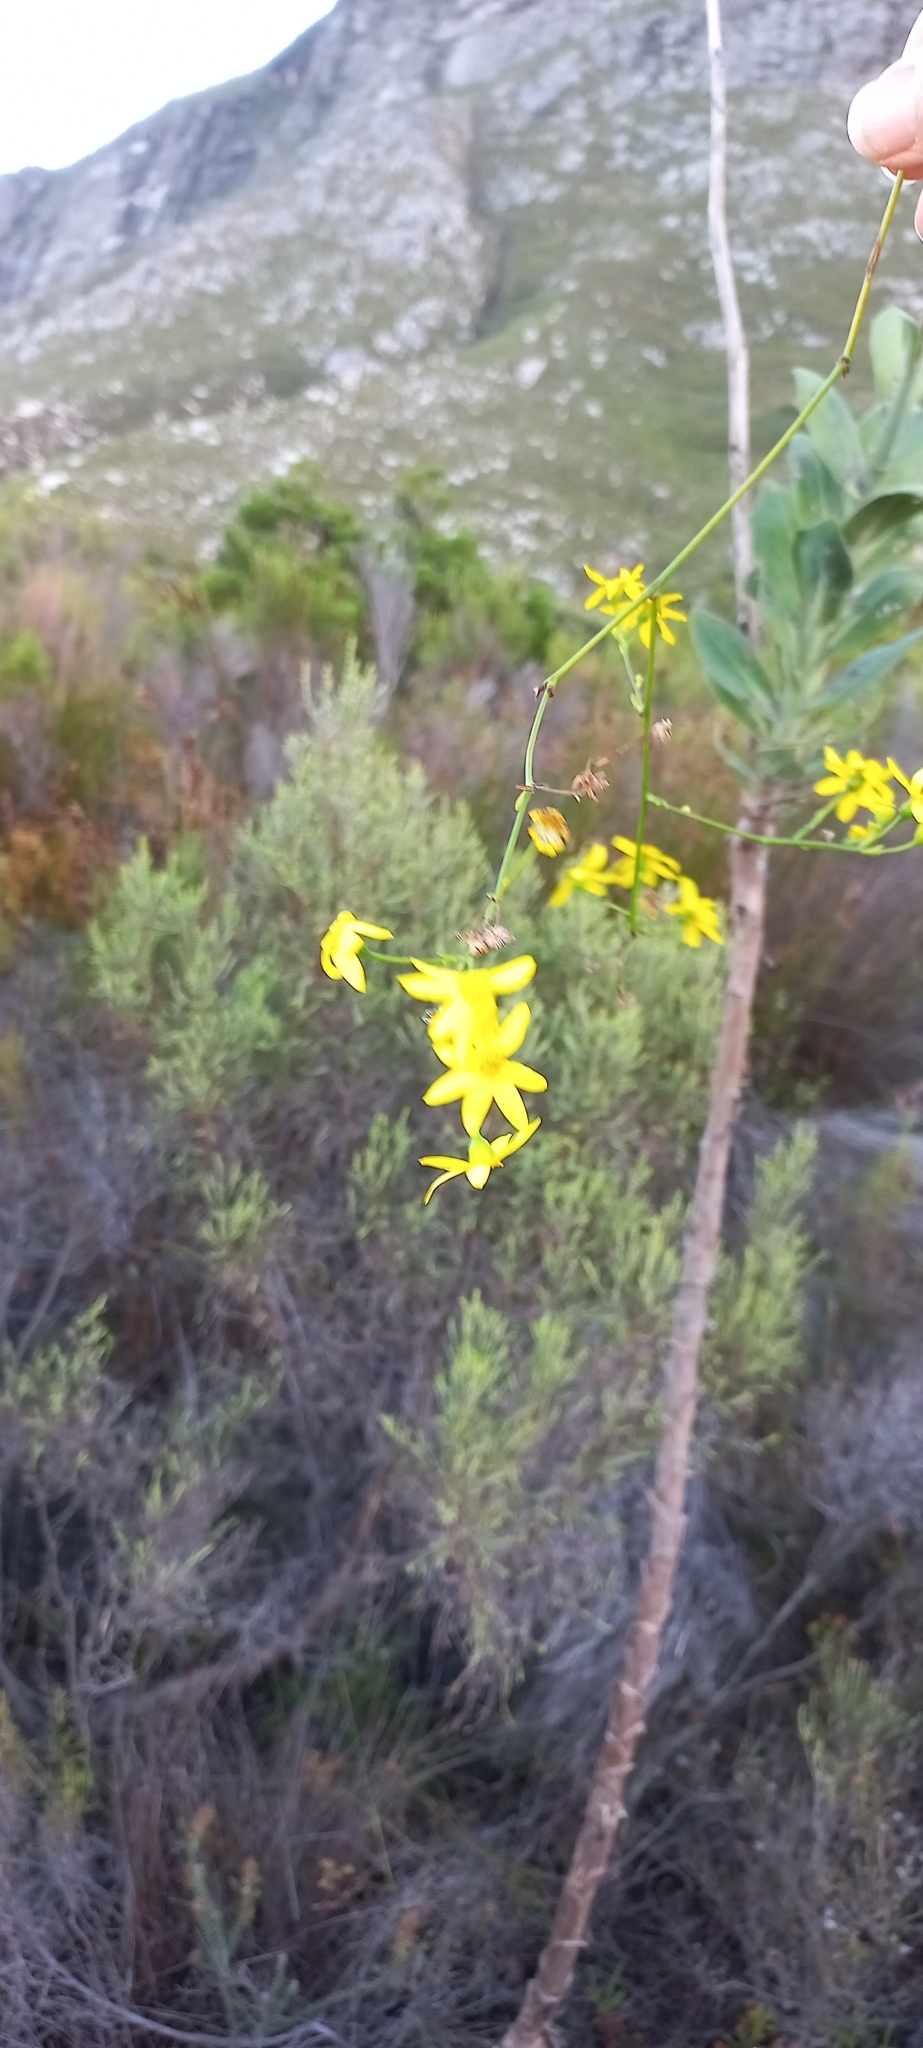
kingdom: Plantae
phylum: Tracheophyta
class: Magnoliopsida
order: Asterales
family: Asteraceae
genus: Othonna
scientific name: Othonna quinquedentata
